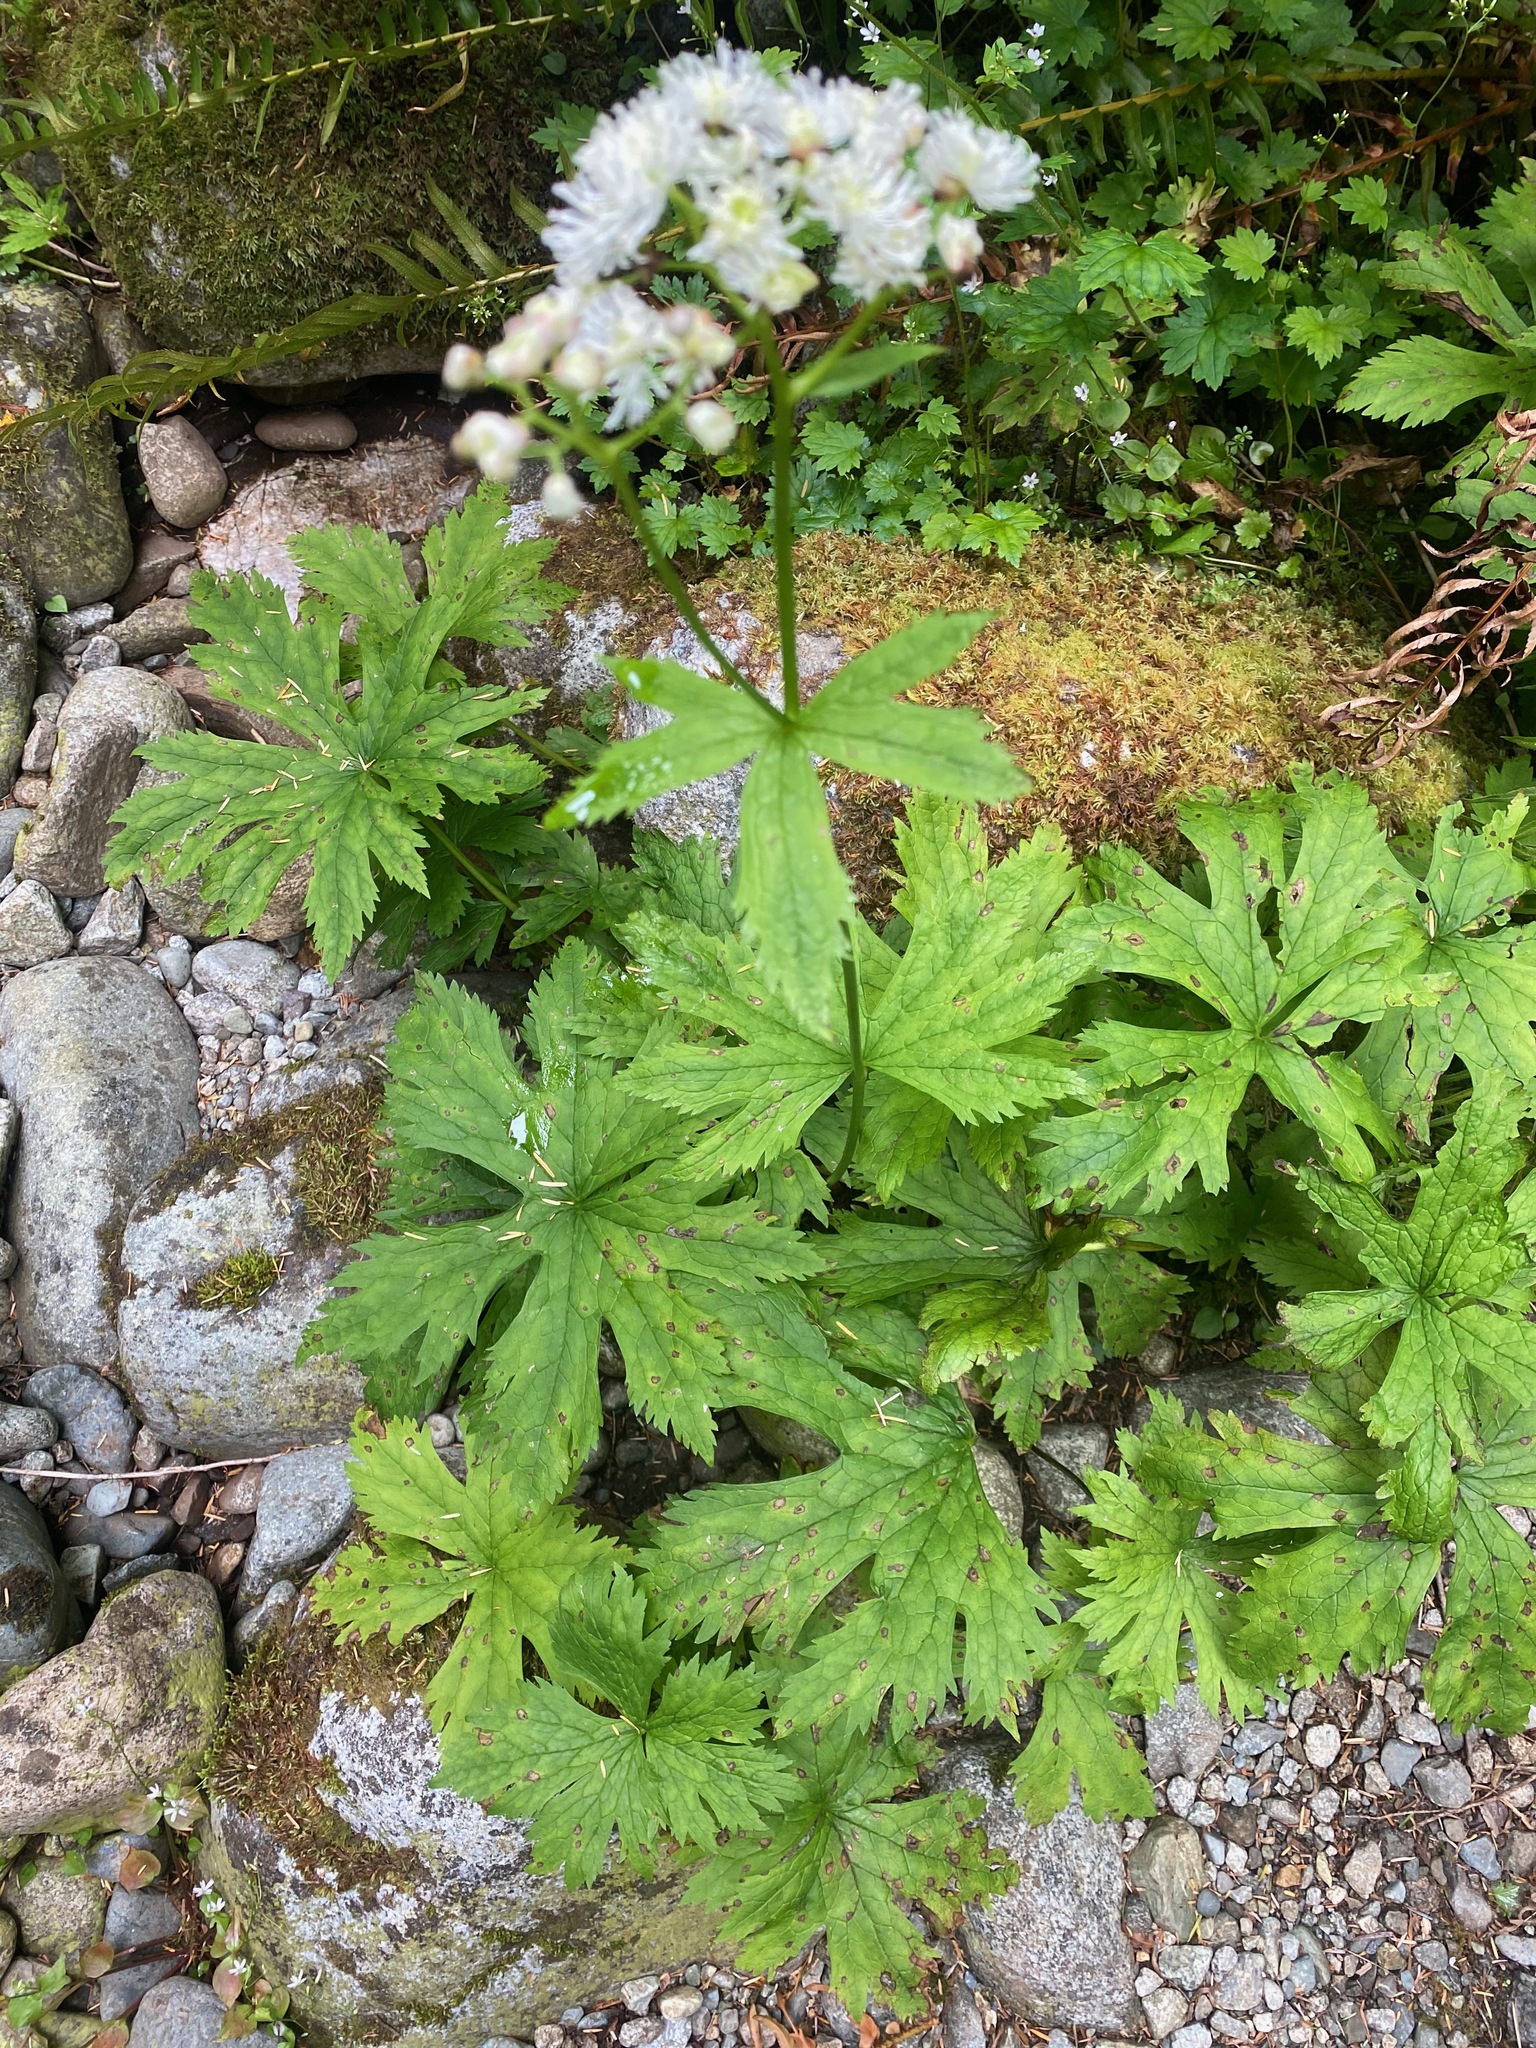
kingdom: Plantae
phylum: Tracheophyta
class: Magnoliopsida
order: Ranunculales
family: Ranunculaceae
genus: Trautvetteria
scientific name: Trautvetteria carolinensis
